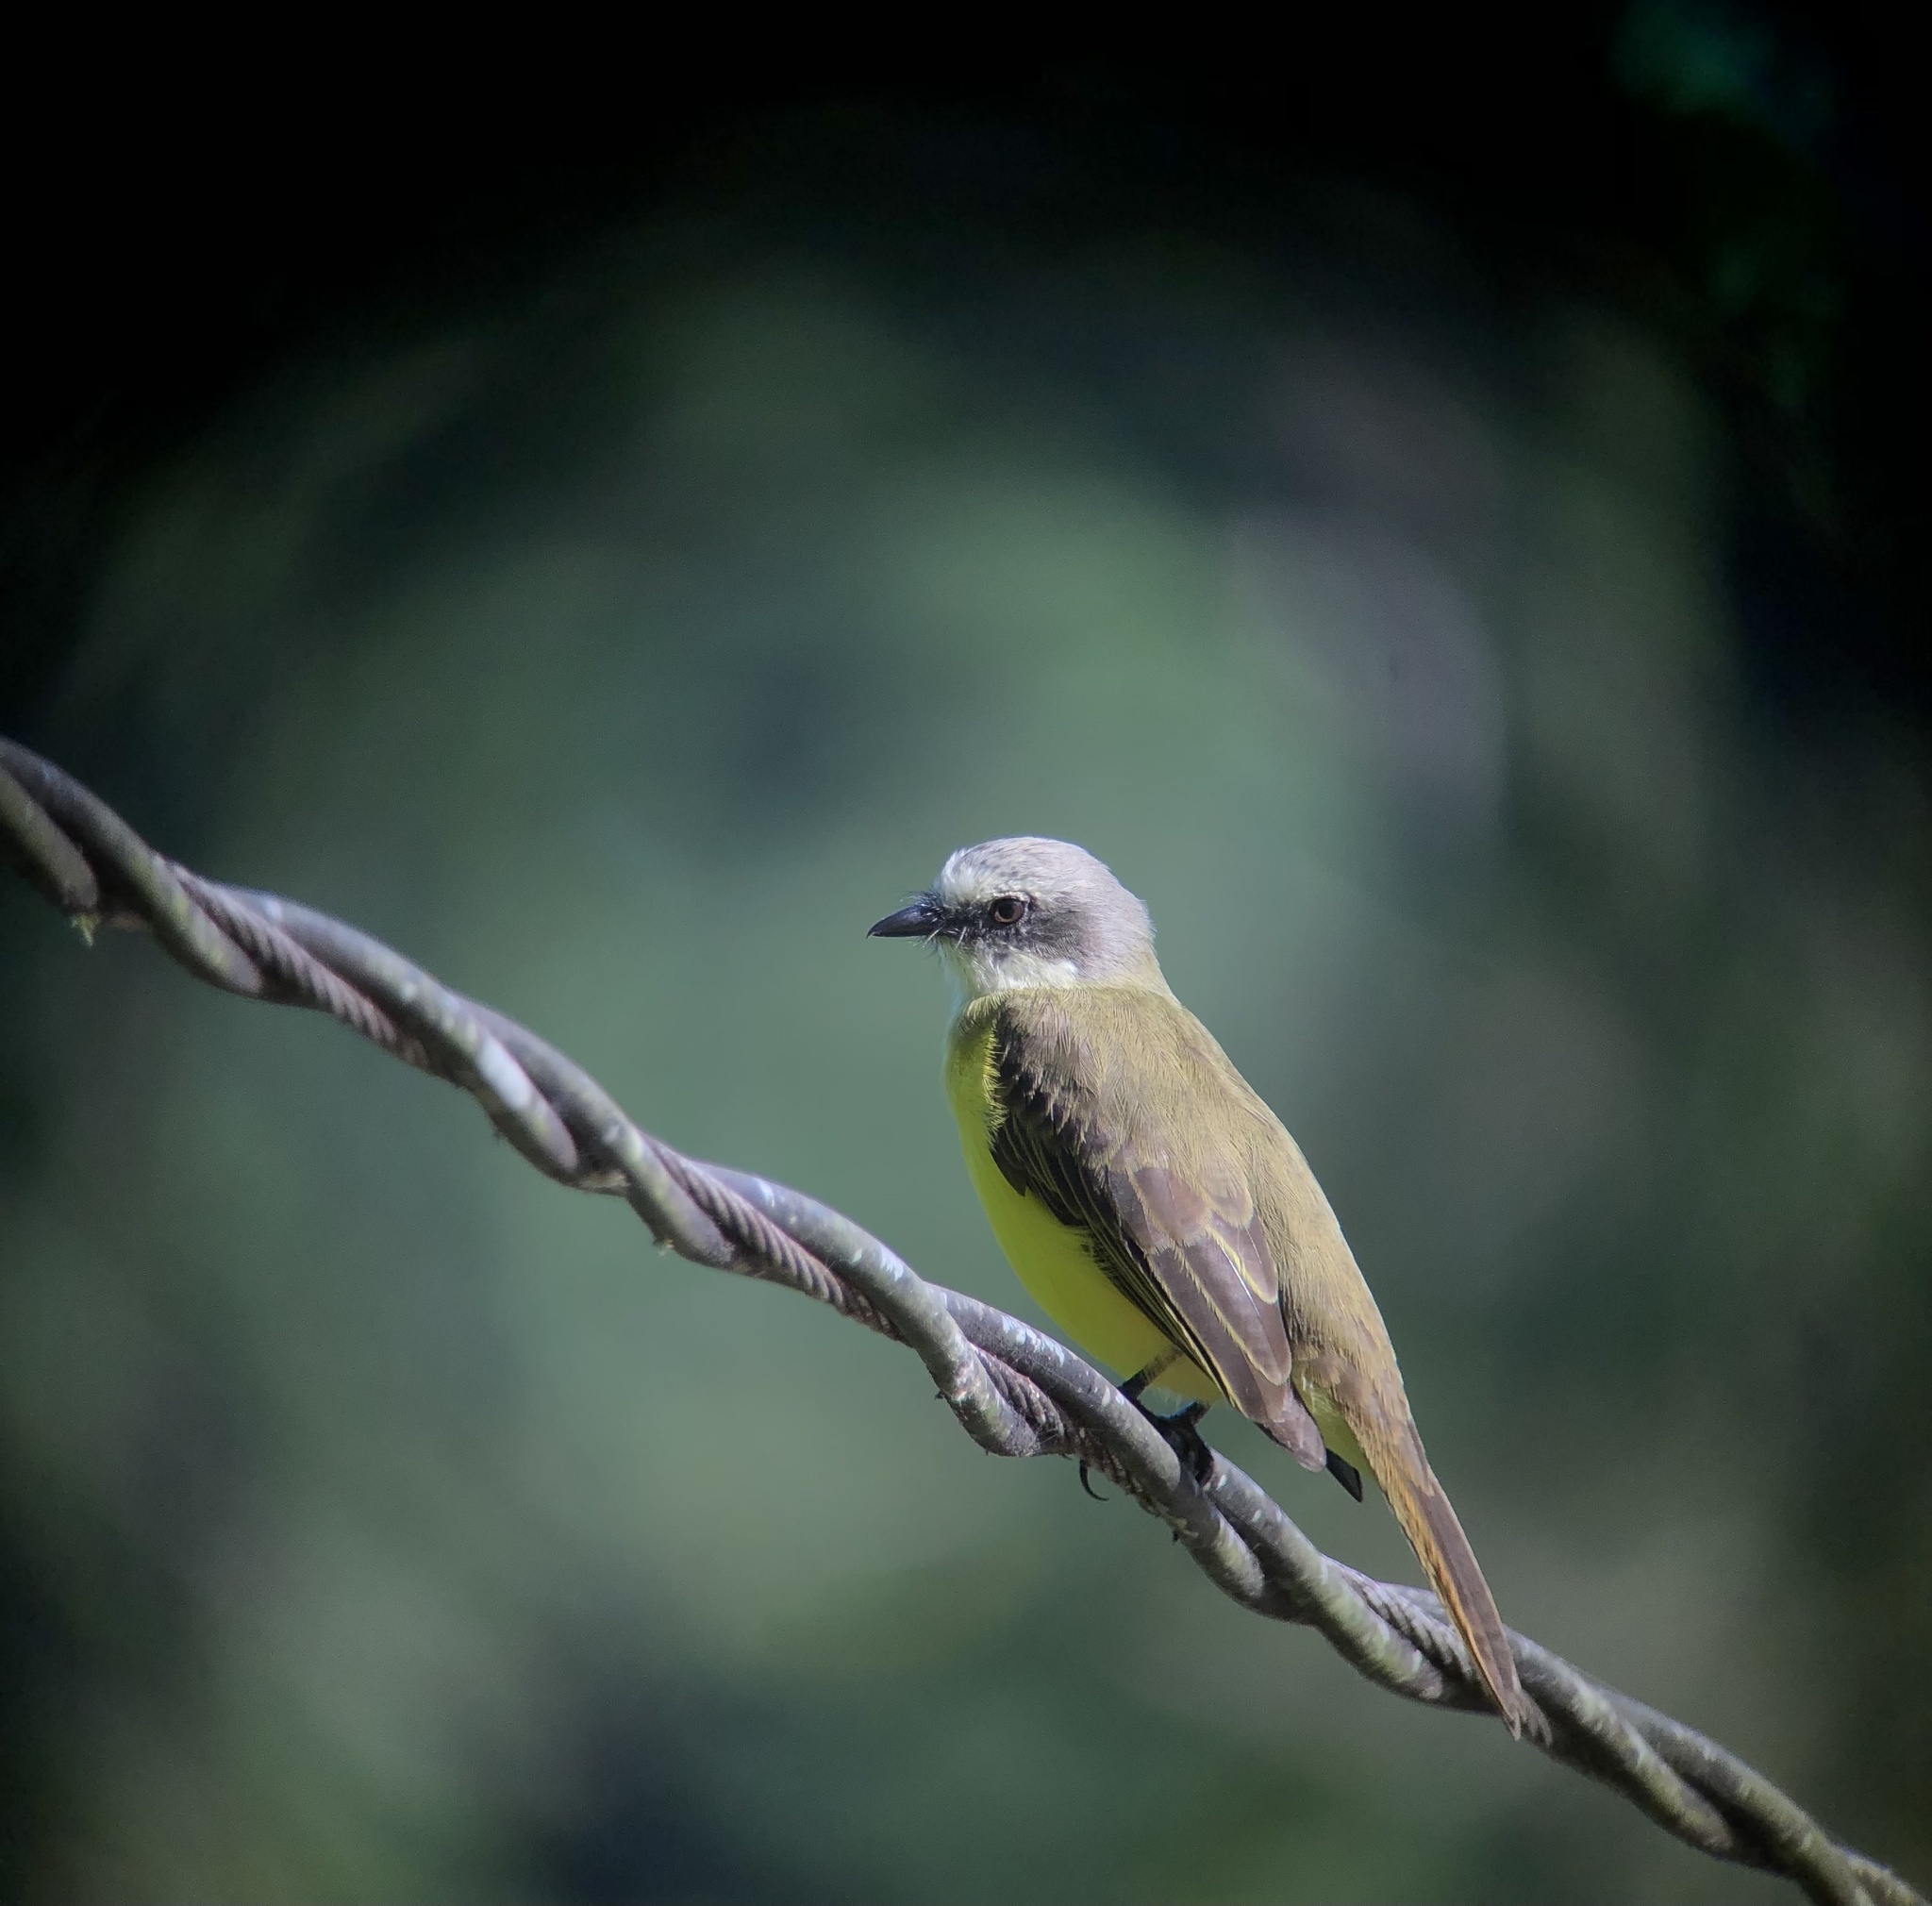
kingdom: Animalia
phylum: Chordata
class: Aves
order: Passeriformes
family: Tyrannidae
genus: Myiozetetes
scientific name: Myiozetetes granadensis
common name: Gray-capped flycatcher
